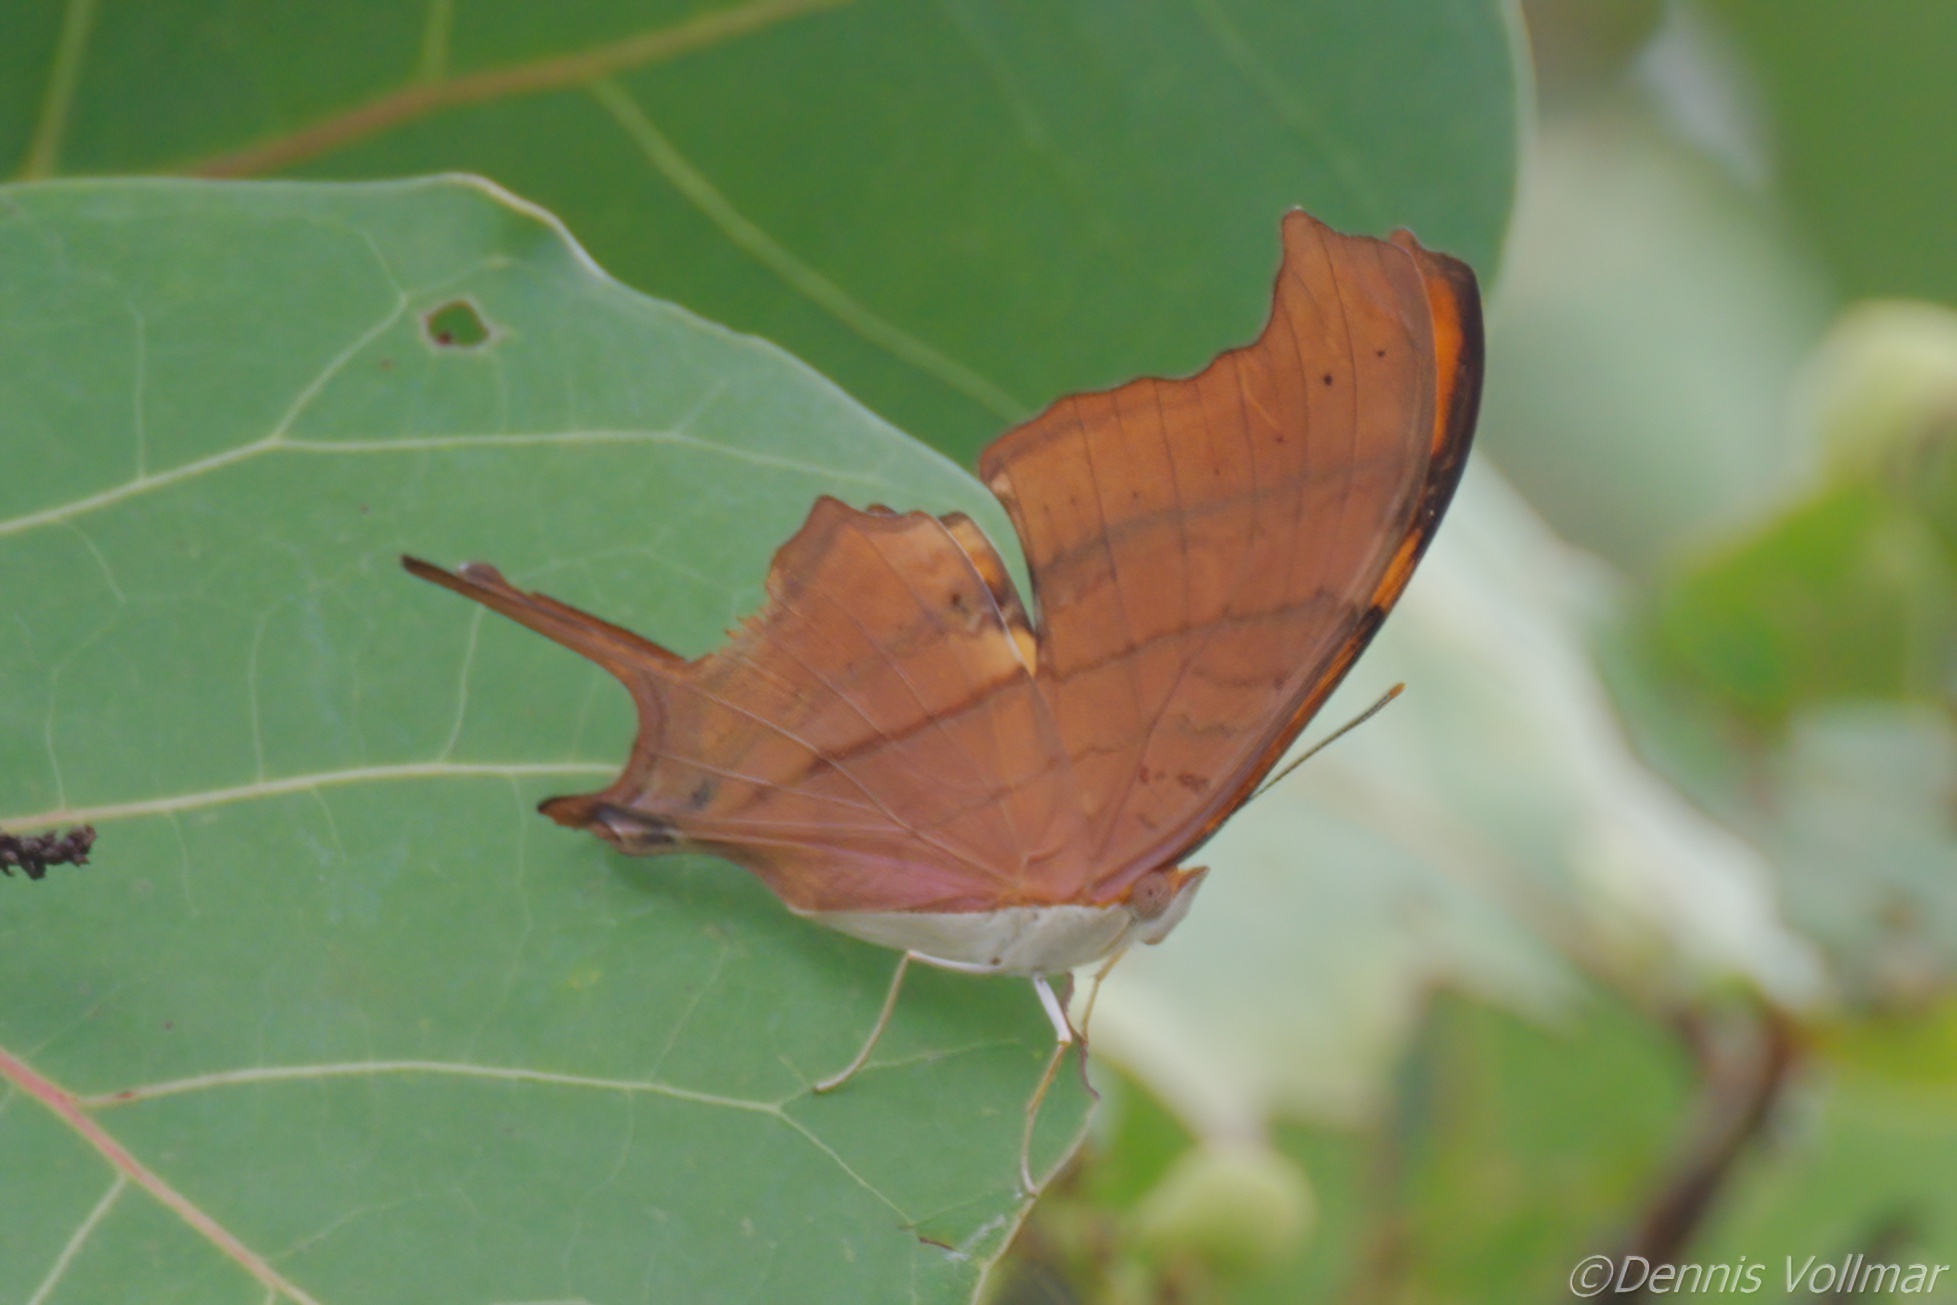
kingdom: Animalia
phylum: Arthropoda
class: Insecta
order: Lepidoptera
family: Nymphalidae
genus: Marpesia
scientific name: Marpesia petreus
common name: Red dagger wing
